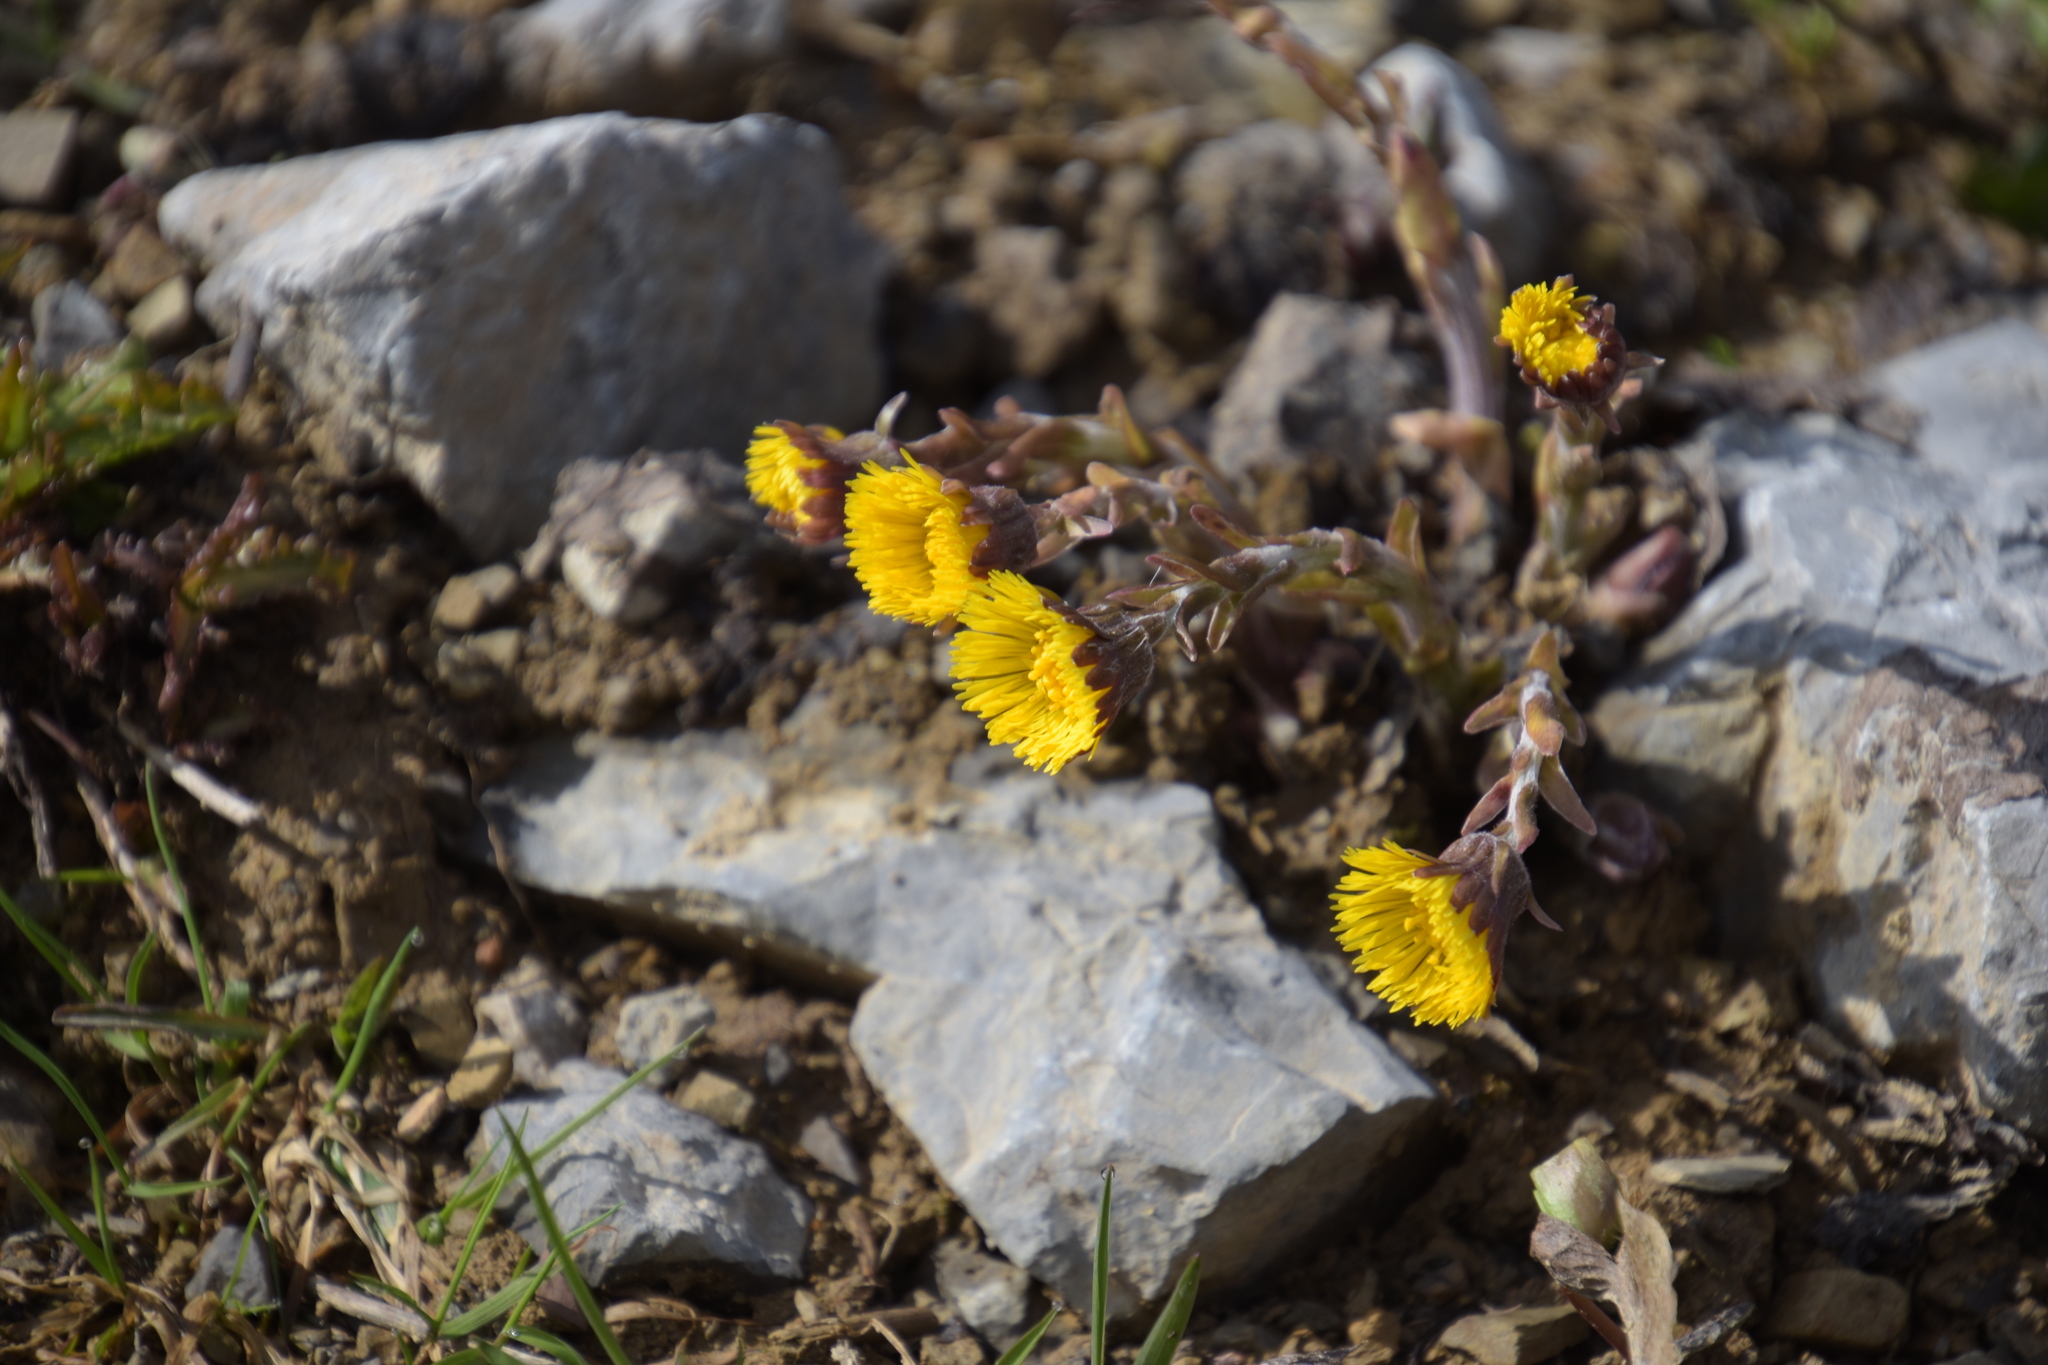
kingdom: Plantae
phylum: Tracheophyta
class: Magnoliopsida
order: Asterales
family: Asteraceae
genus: Tussilago
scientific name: Tussilago farfara
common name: Coltsfoot
